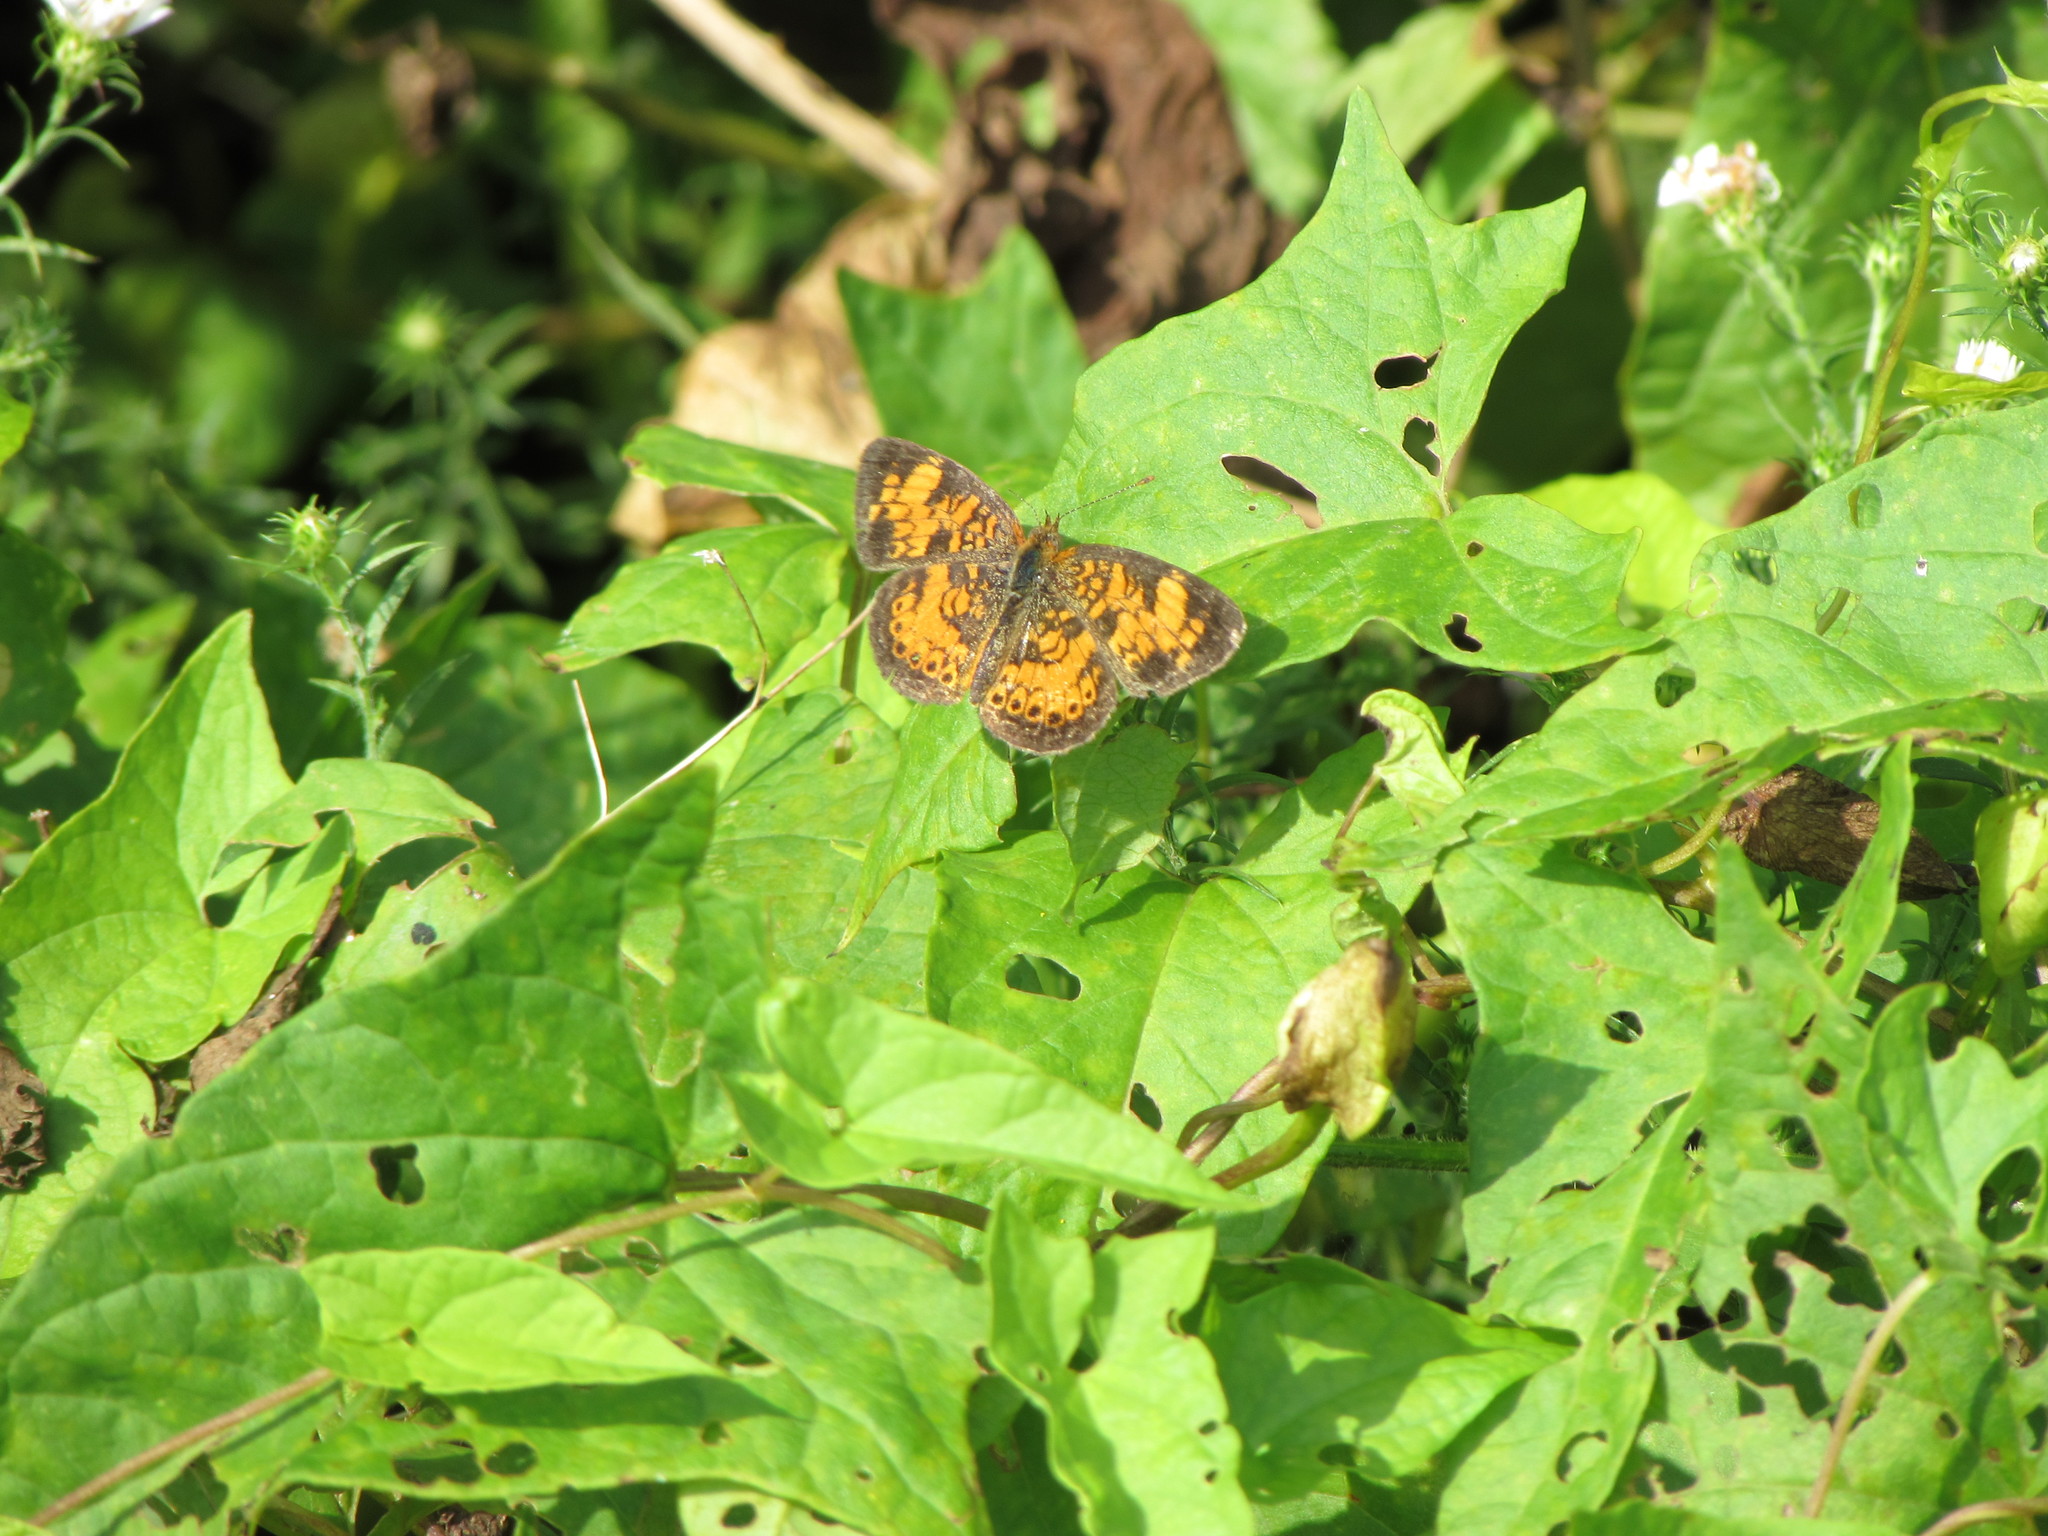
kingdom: Animalia
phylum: Arthropoda
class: Insecta
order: Lepidoptera
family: Nymphalidae
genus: Phyciodes
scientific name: Phyciodes tharos
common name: Pearl crescent
